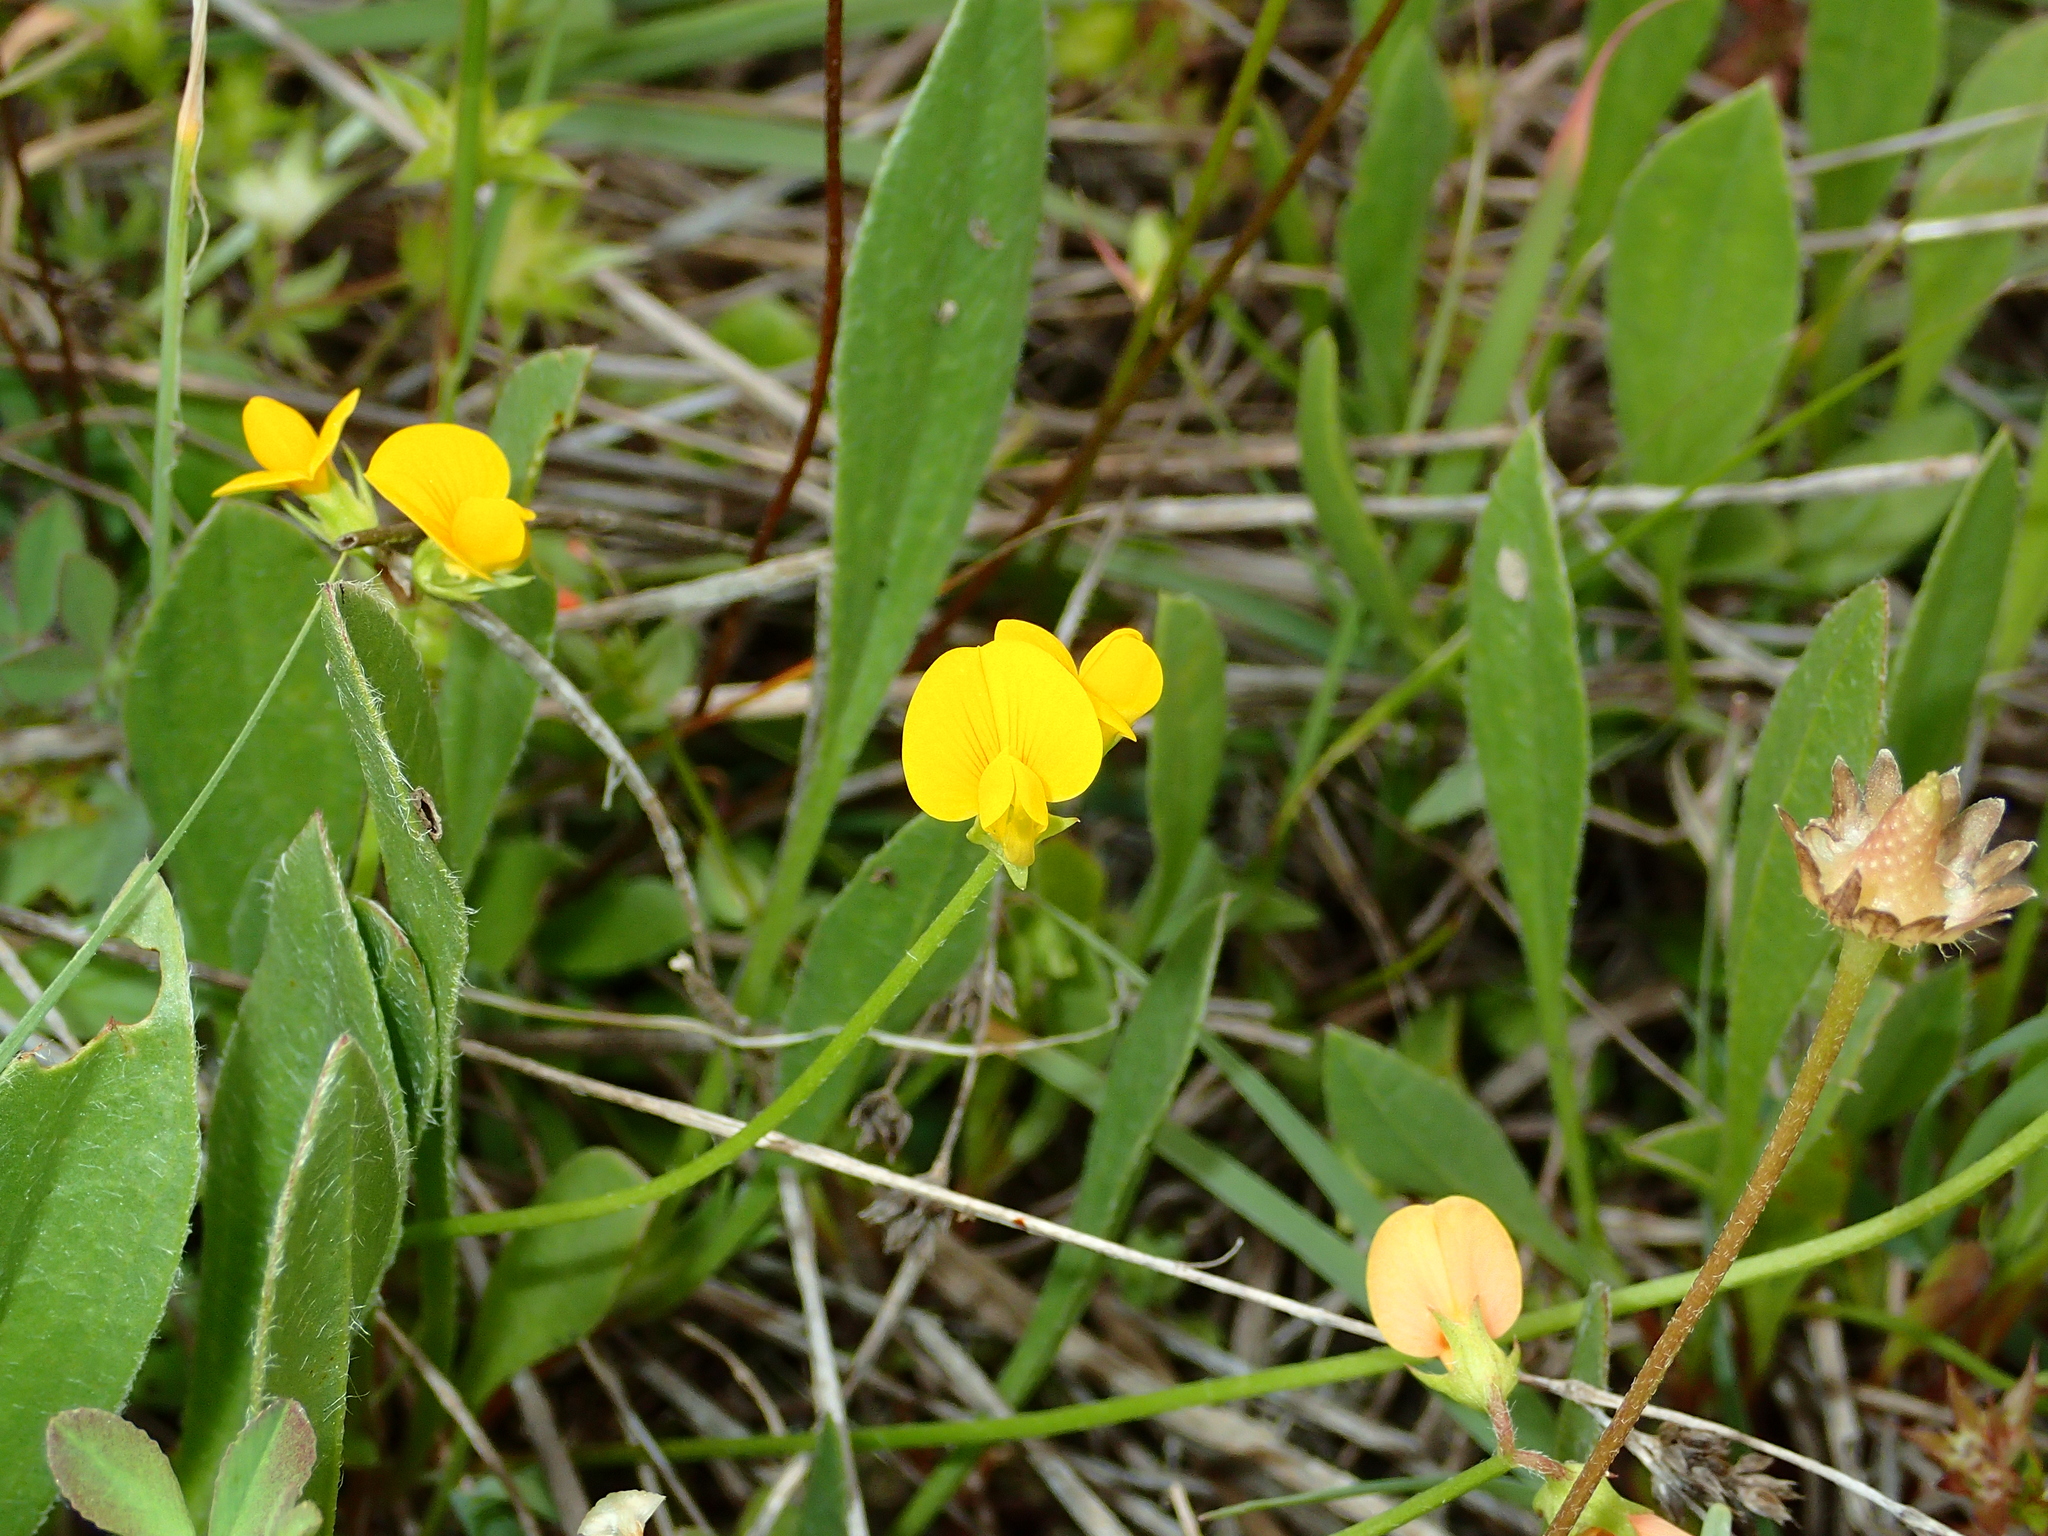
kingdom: Plantae
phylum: Tracheophyta
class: Magnoliopsida
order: Fabales
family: Fabaceae
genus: Scorpiurus
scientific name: Scorpiurus muricatus
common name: Caterpillar-plant
